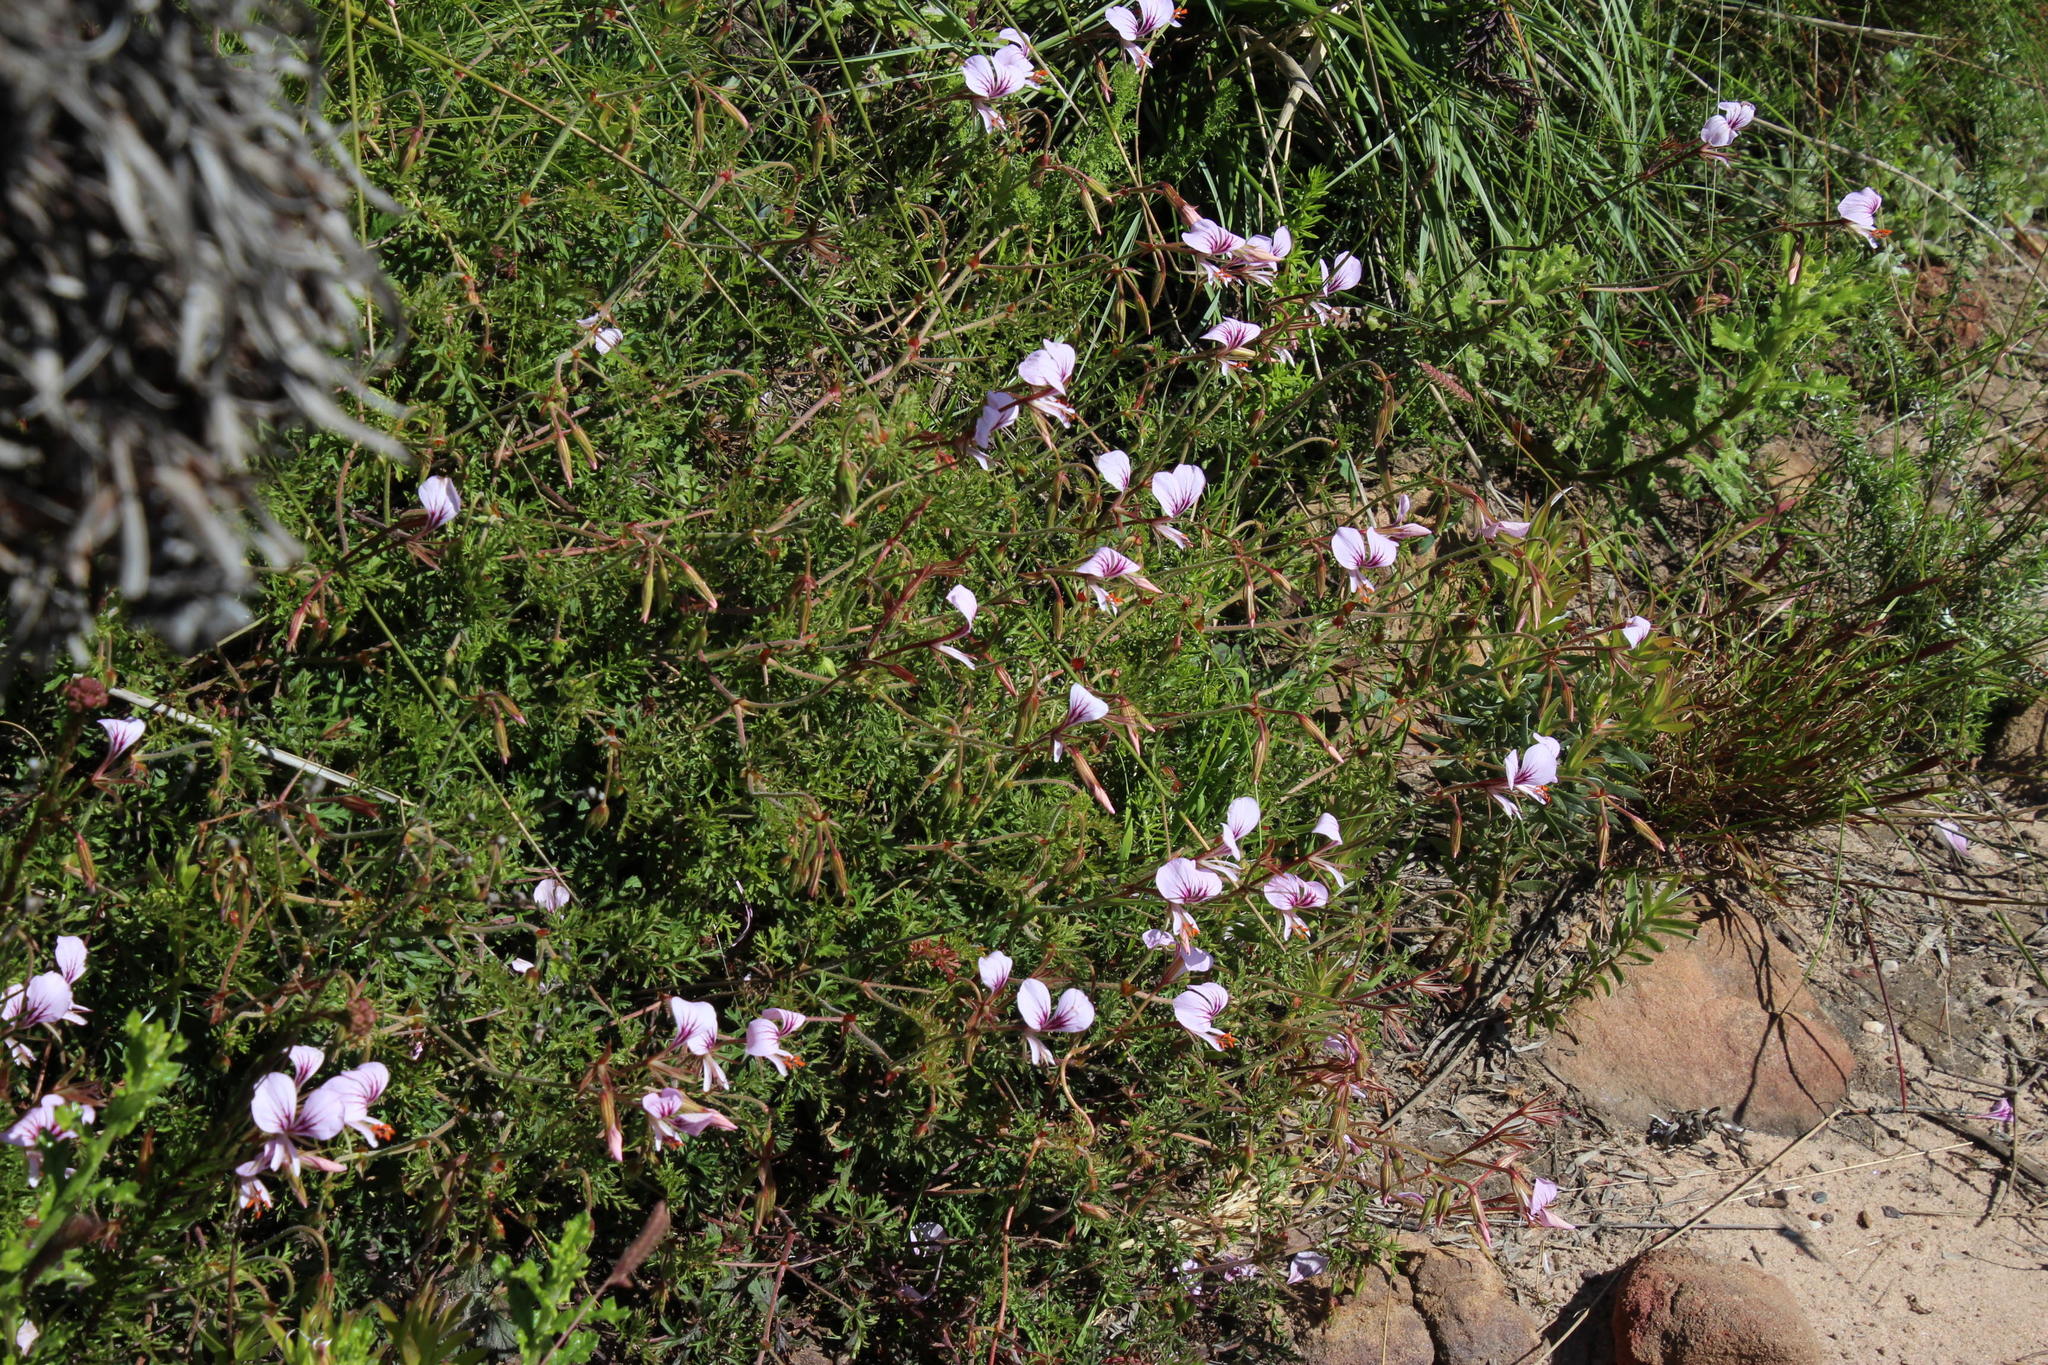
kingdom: Plantae
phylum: Tracheophyta
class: Magnoliopsida
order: Geraniales
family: Geraniaceae
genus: Pelargonium
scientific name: Pelargonium longicaule
